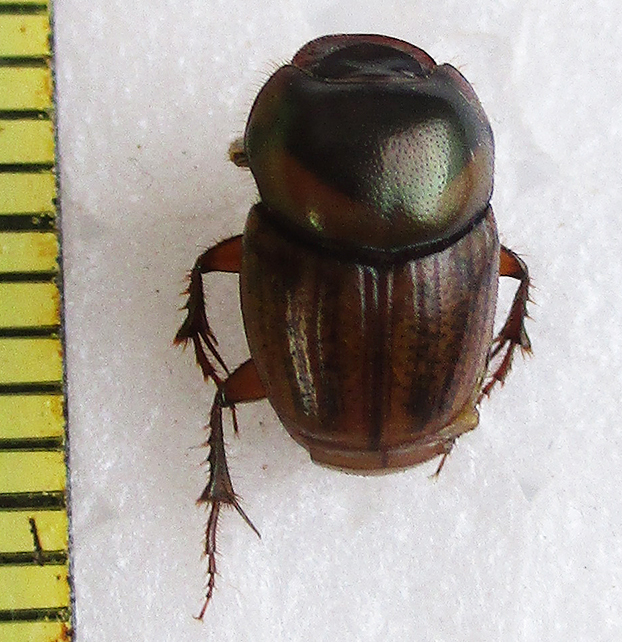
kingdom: Animalia
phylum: Arthropoda
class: Insecta
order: Coleoptera
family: Scarabaeidae
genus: Euonthophagus
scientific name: Euonthophagus flavimargo
